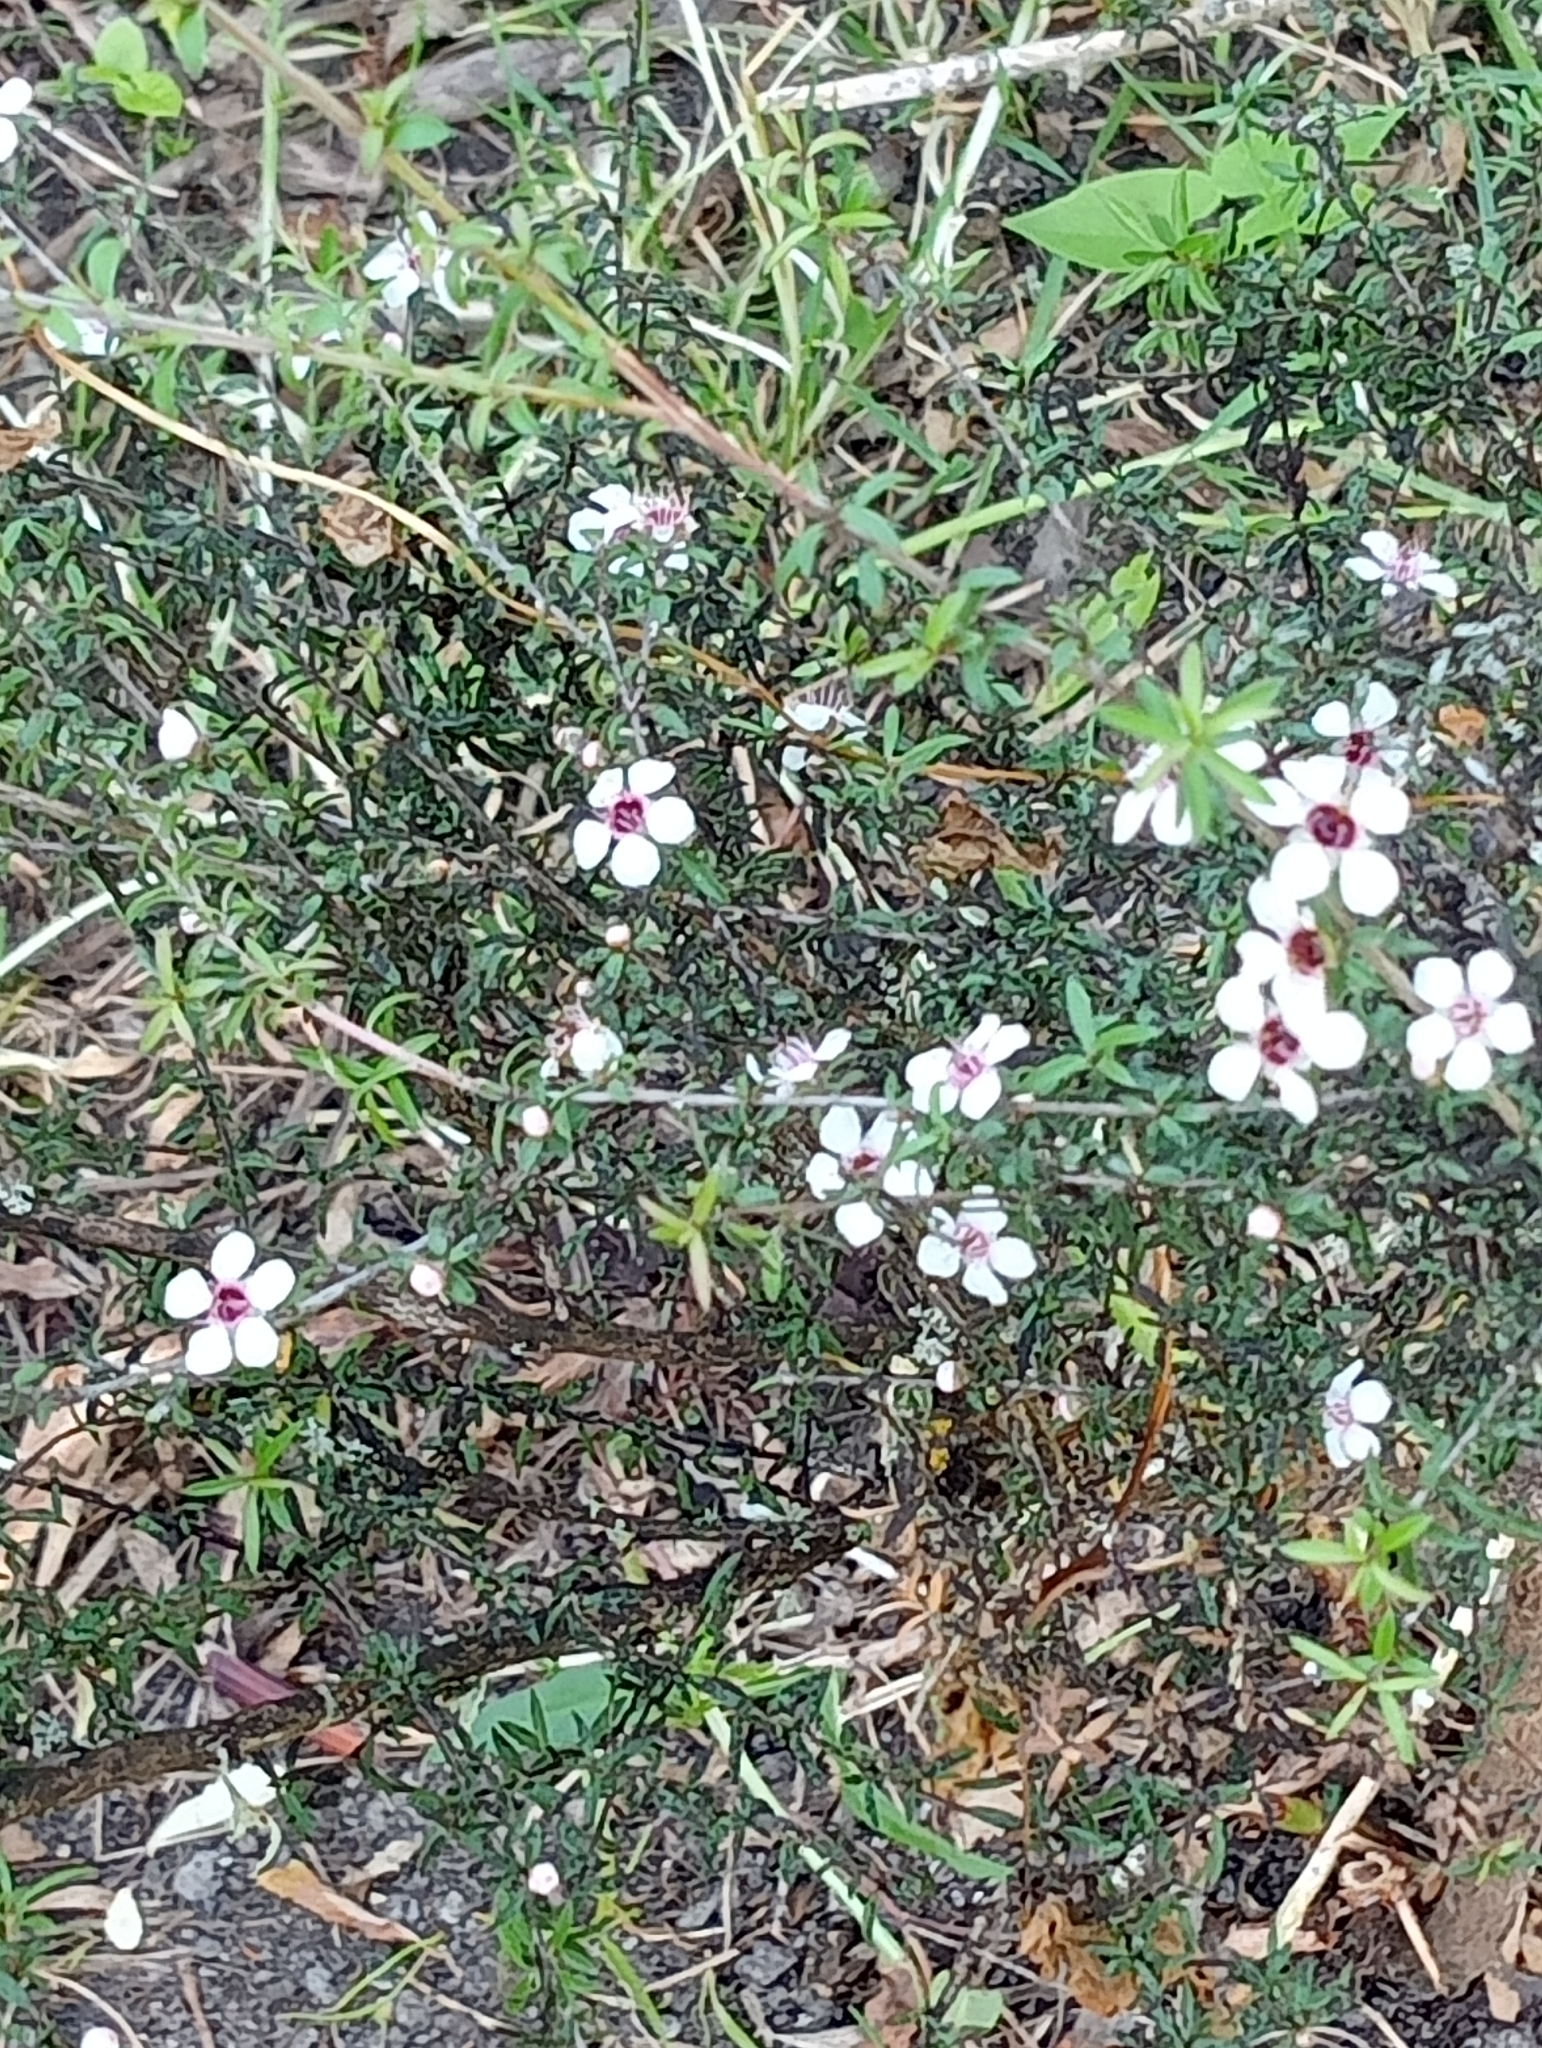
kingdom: Plantae
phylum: Tracheophyta
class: Magnoliopsida
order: Myrtales
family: Myrtaceae
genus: Leptospermum
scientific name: Leptospermum scoparium
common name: Broom tea-tree
